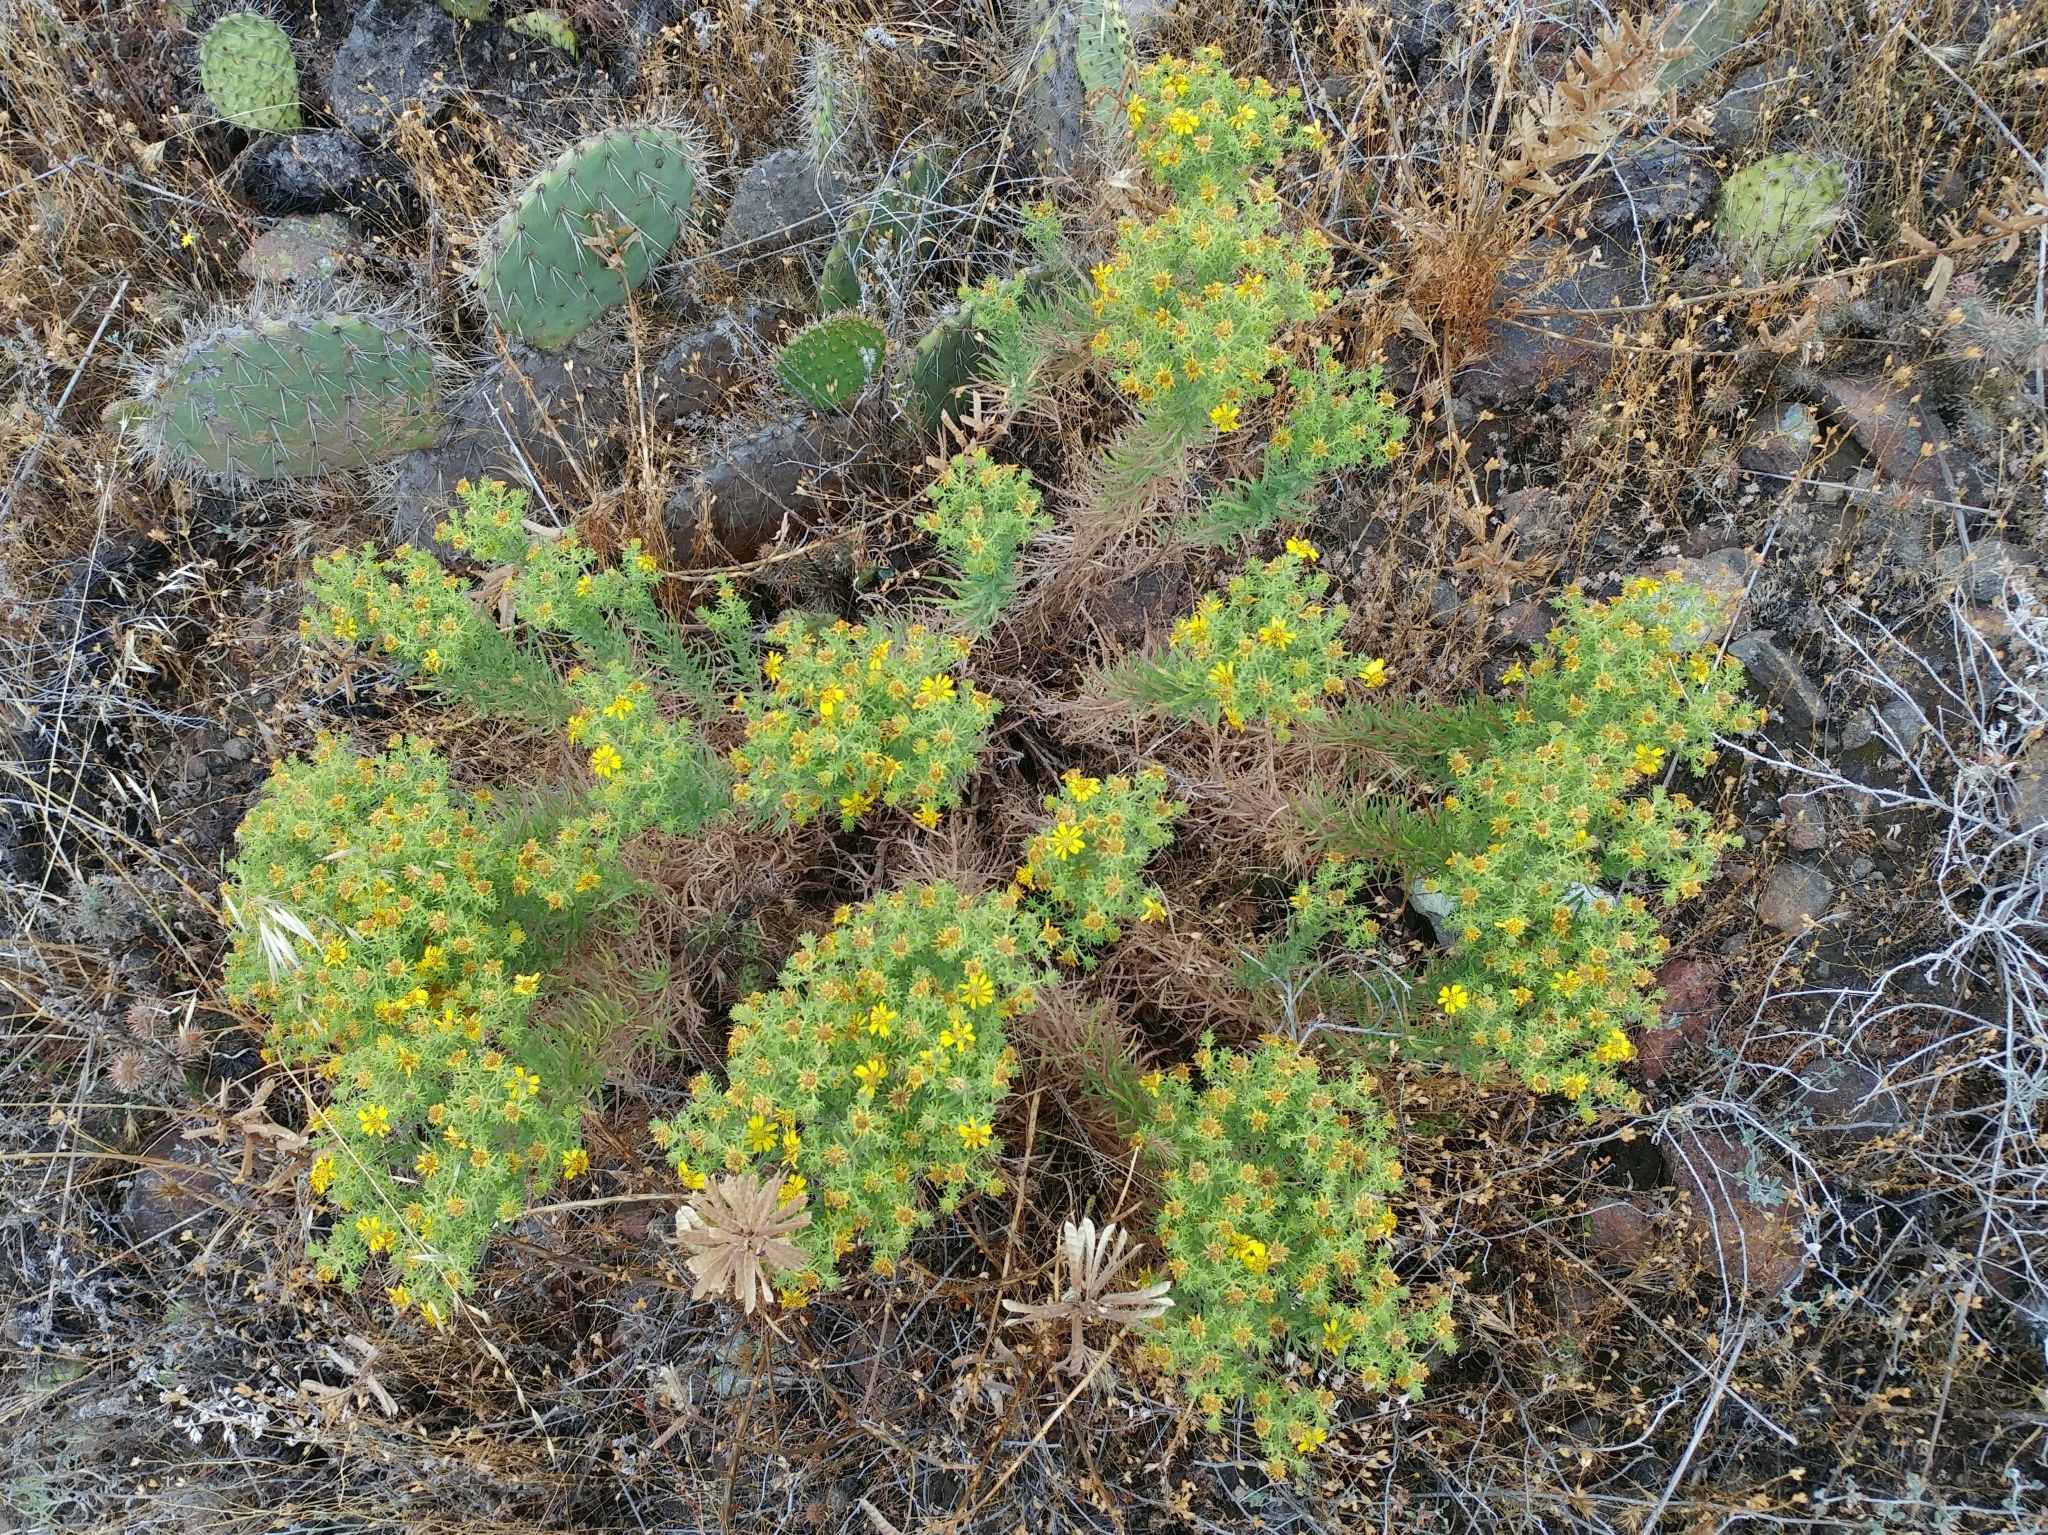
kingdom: Plantae
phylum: Tracheophyta
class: Magnoliopsida
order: Asterales
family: Asteraceae
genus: Deinandra
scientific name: Deinandra clementina
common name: Island tarplant
